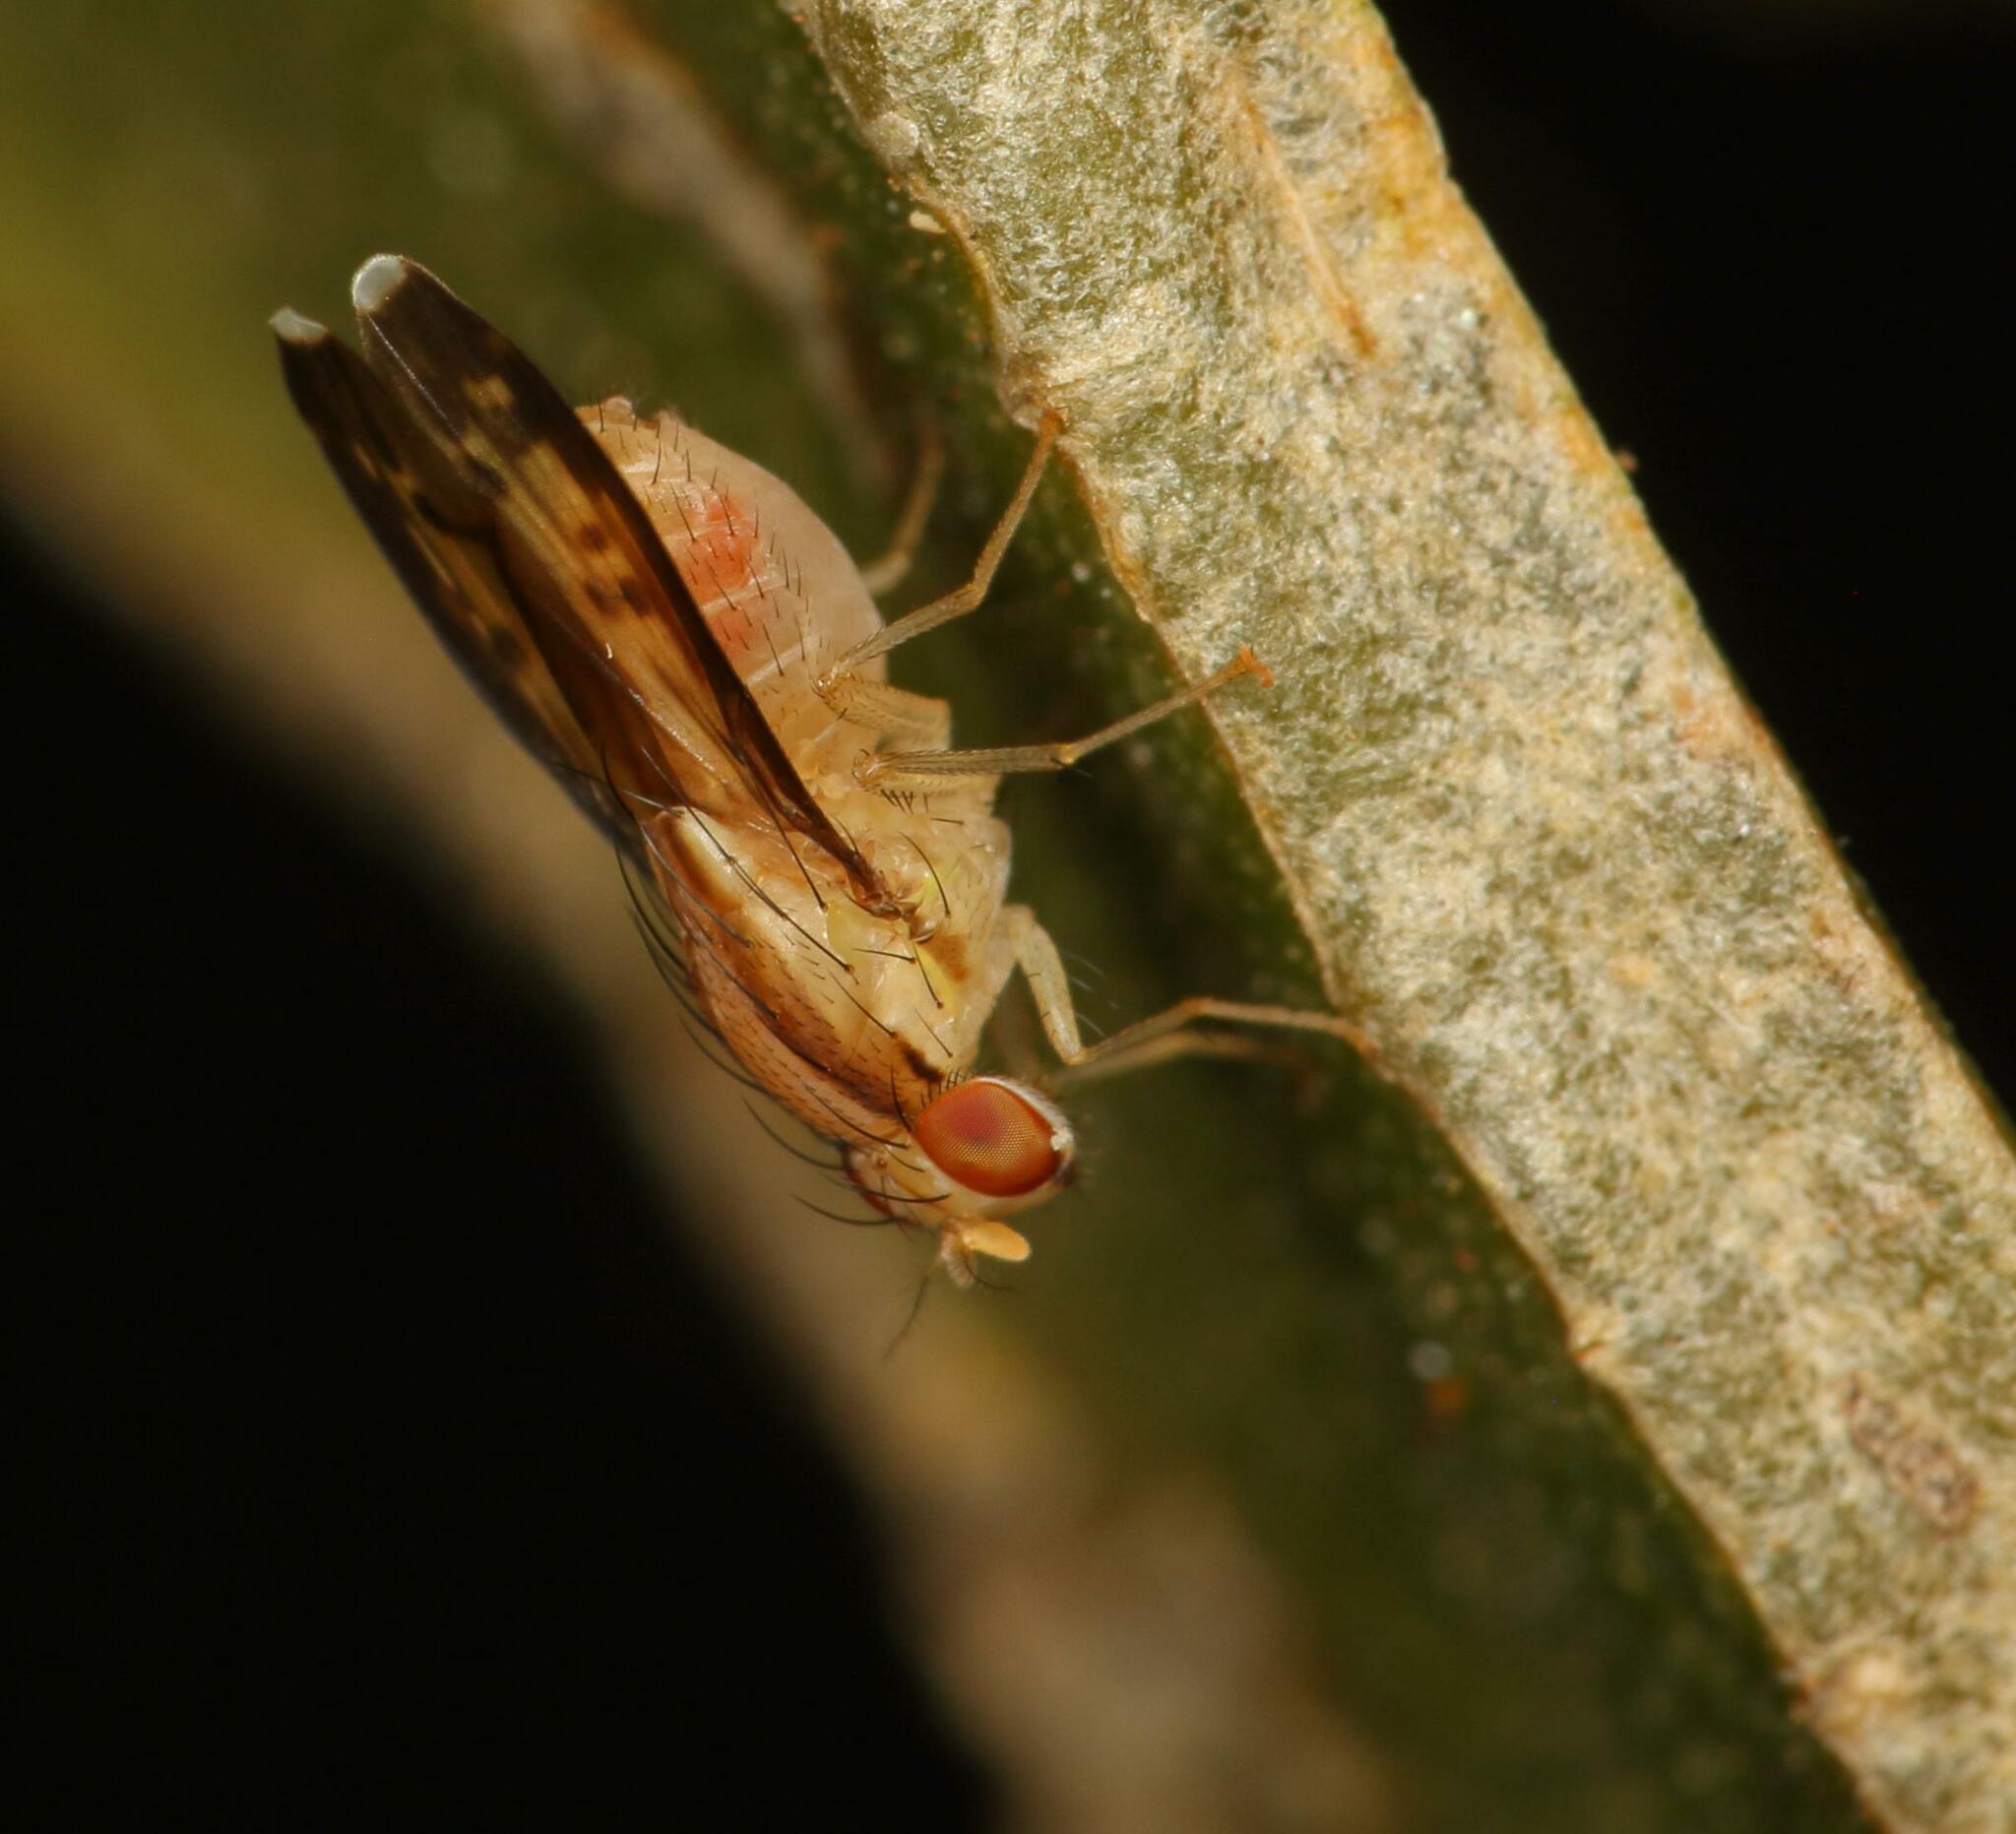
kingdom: Animalia
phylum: Arthropoda
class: Insecta
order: Diptera
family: Lauxaniidae
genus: Homoneura
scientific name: Homoneura terminalis
